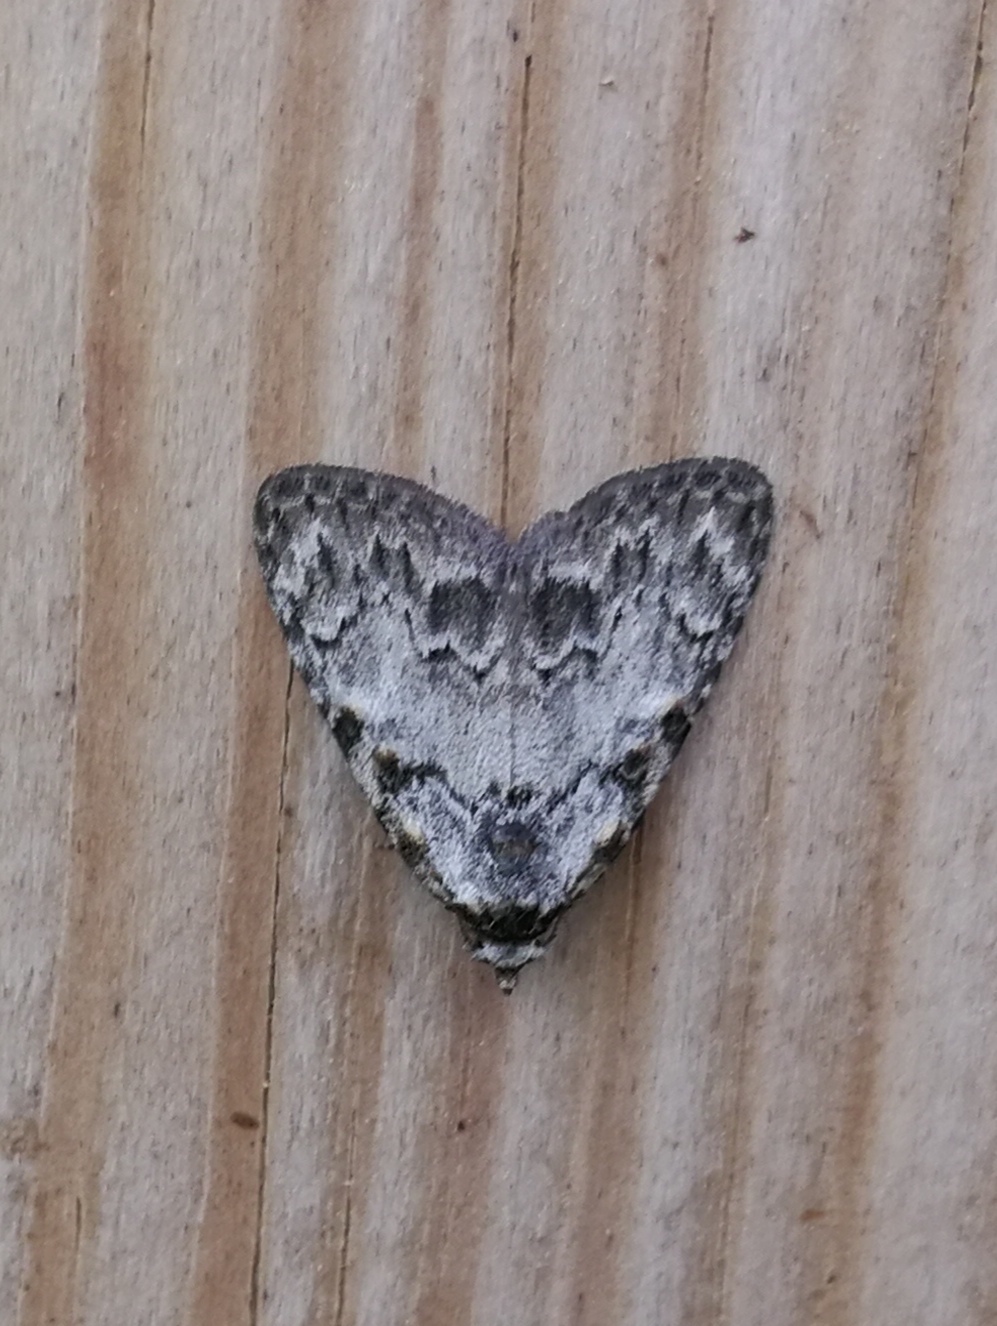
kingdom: Animalia
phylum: Arthropoda
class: Insecta
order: Lepidoptera
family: Nolidae
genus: Meganola
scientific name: Meganola strigula
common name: Small black arches
